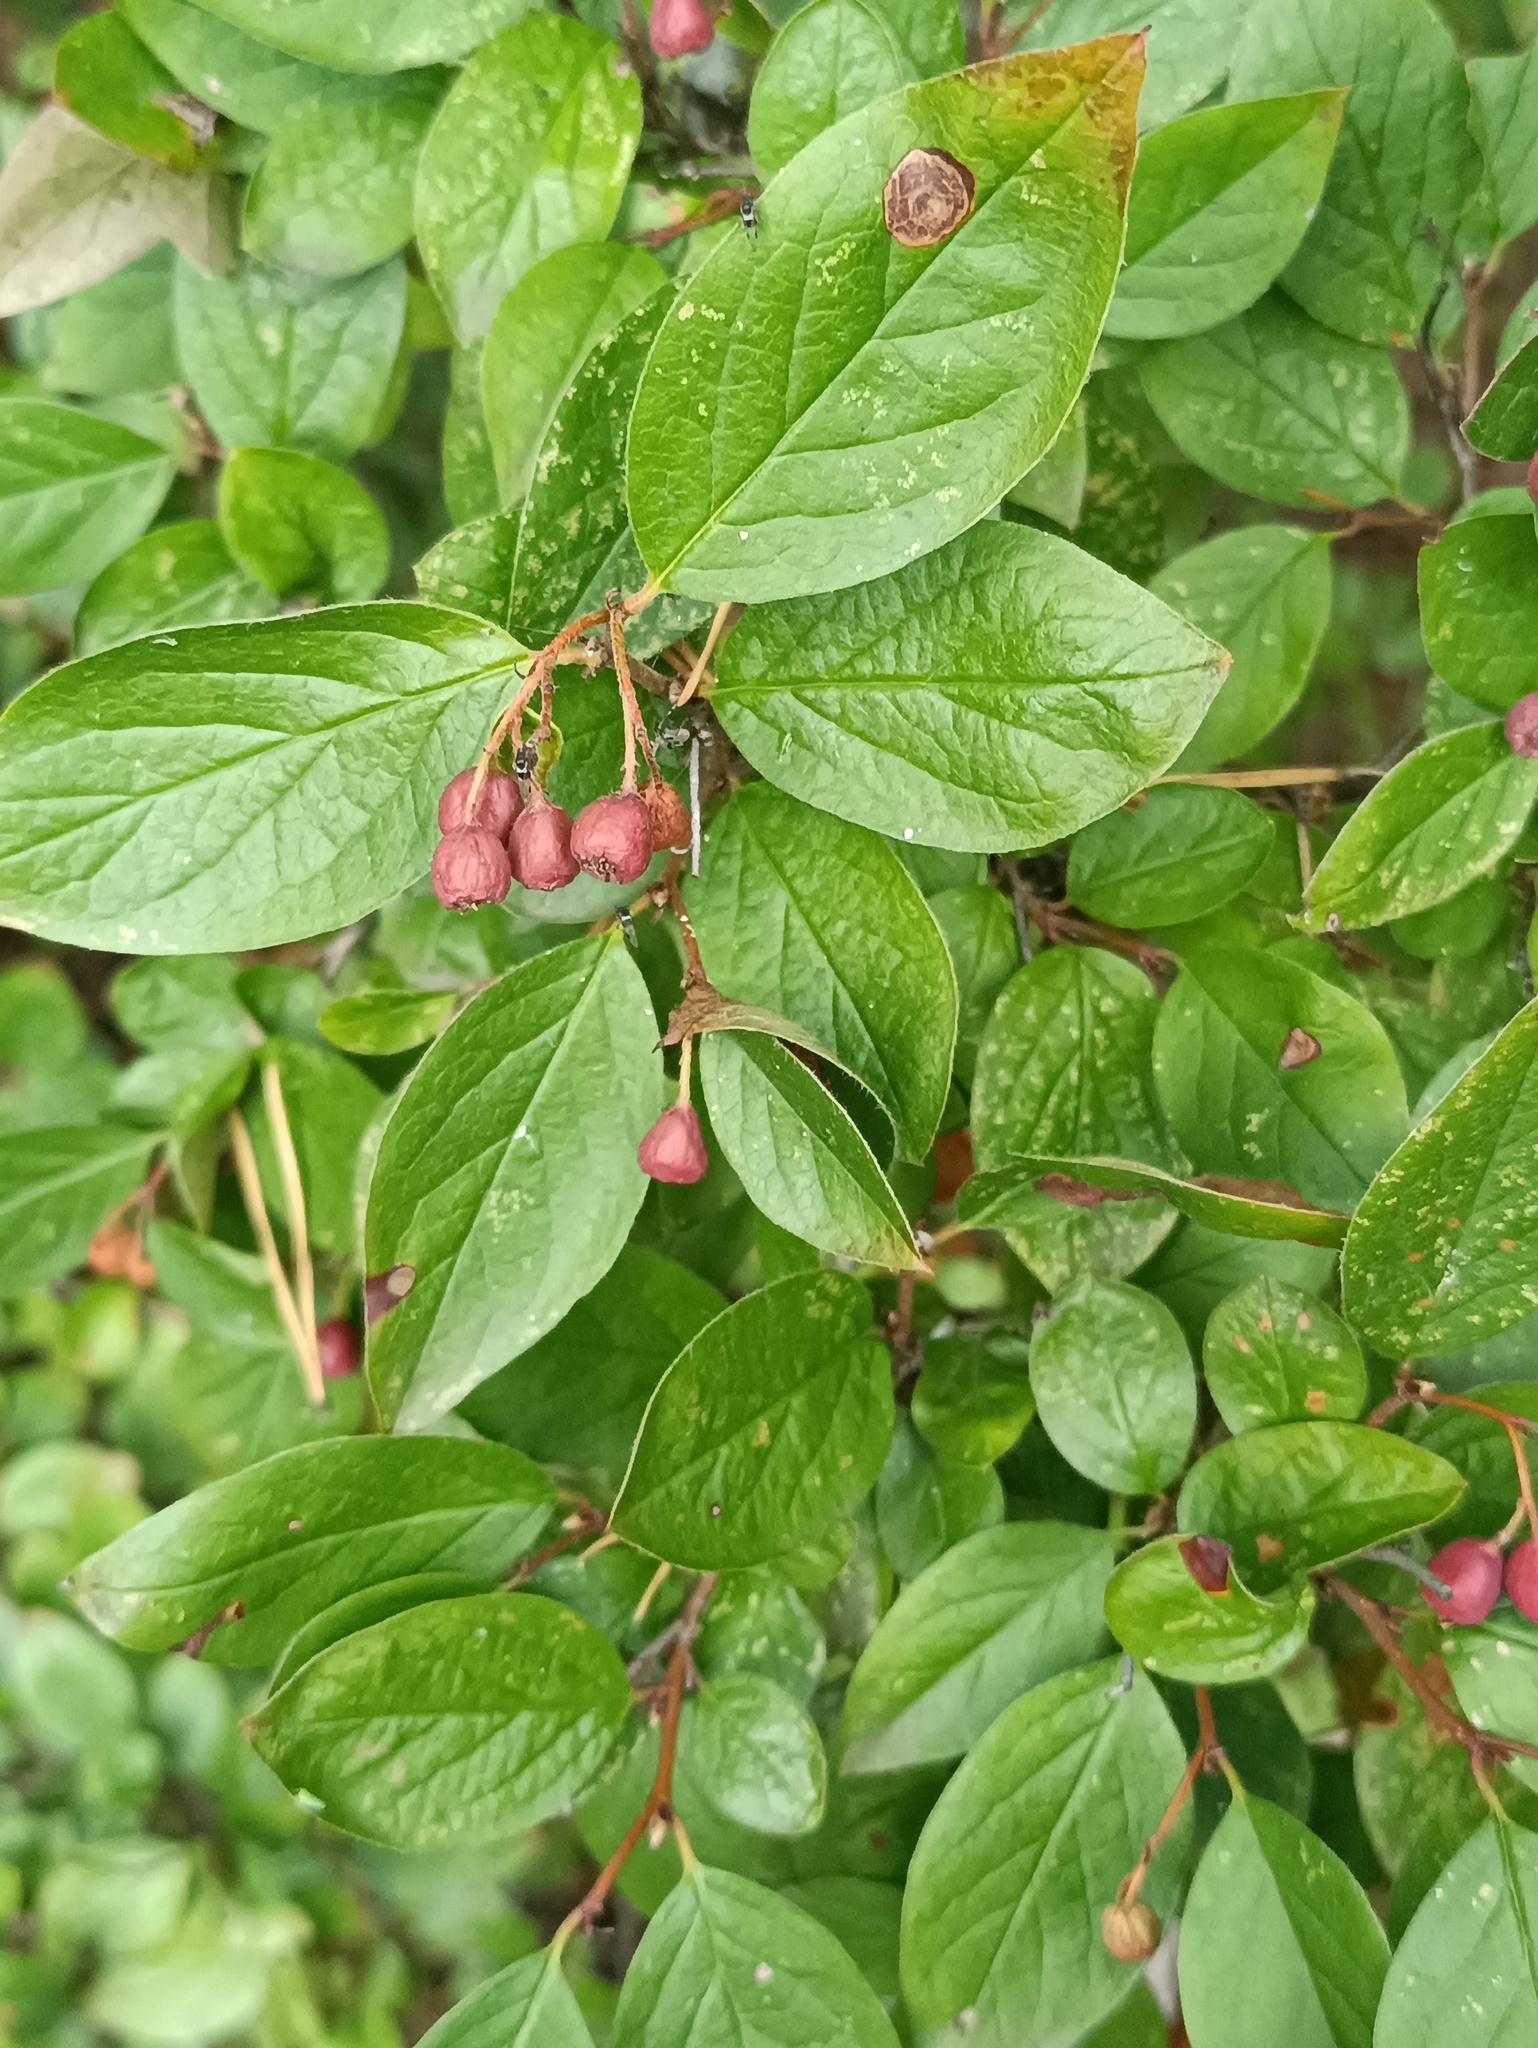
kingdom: Plantae
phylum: Tracheophyta
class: Magnoliopsida
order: Rosales
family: Rosaceae
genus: Cotoneaster
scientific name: Cotoneaster acutifolius
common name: Peking cotoneaster
